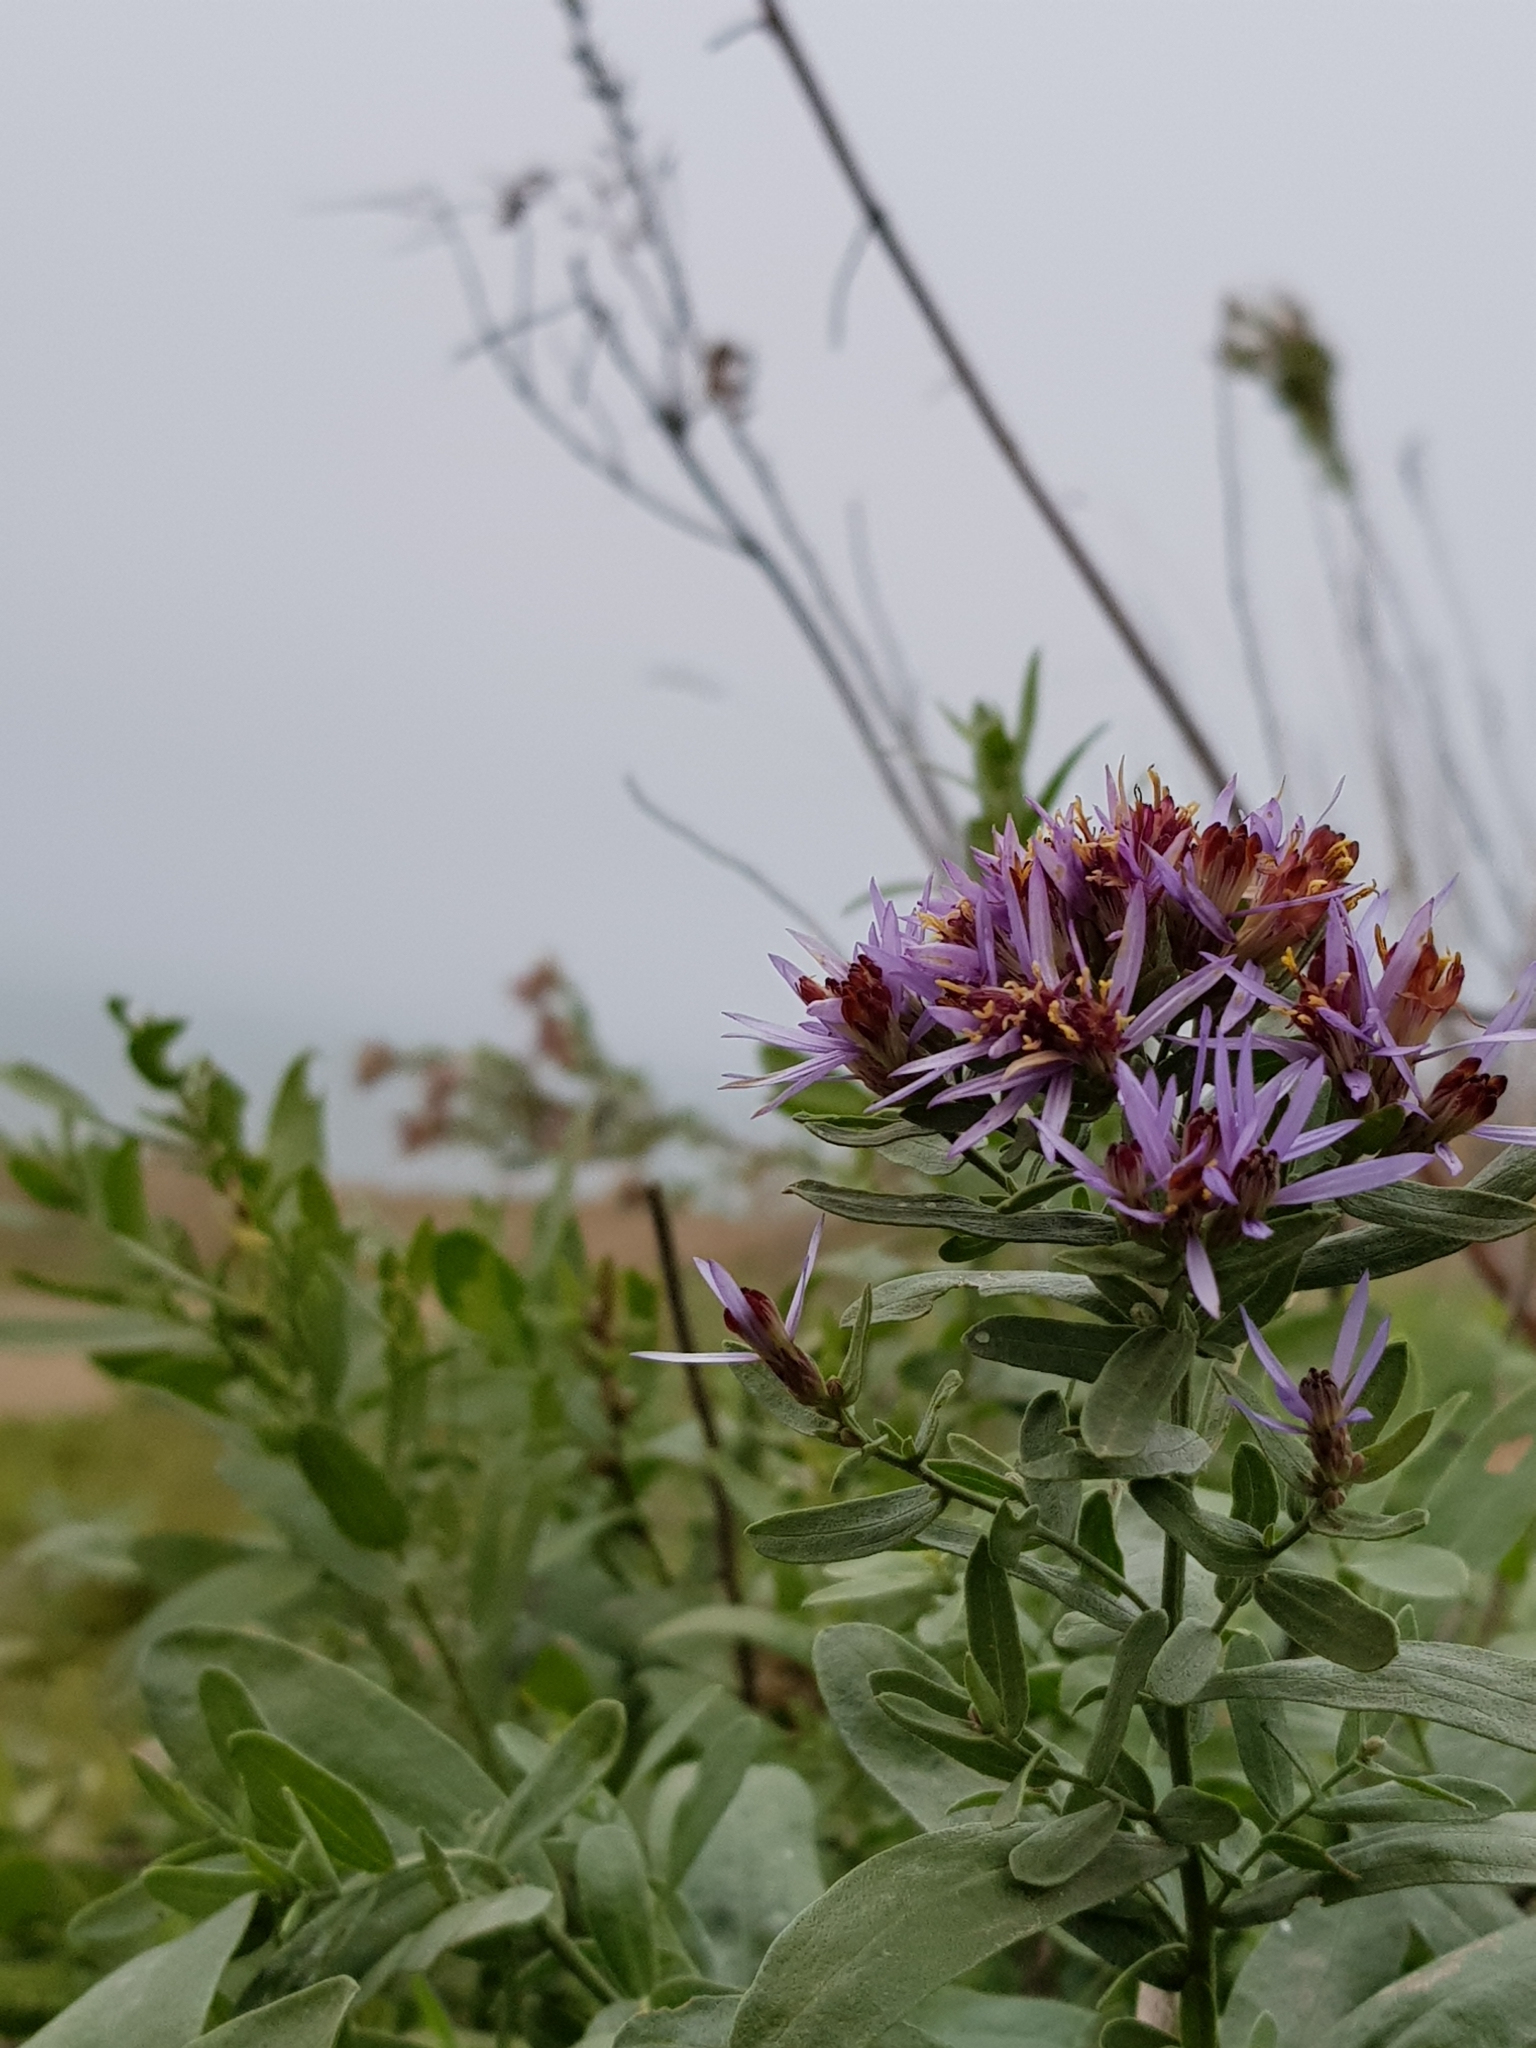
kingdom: Plantae
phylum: Tracheophyta
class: Magnoliopsida
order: Asterales
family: Asteraceae
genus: Galatella
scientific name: Galatella sedifolia
